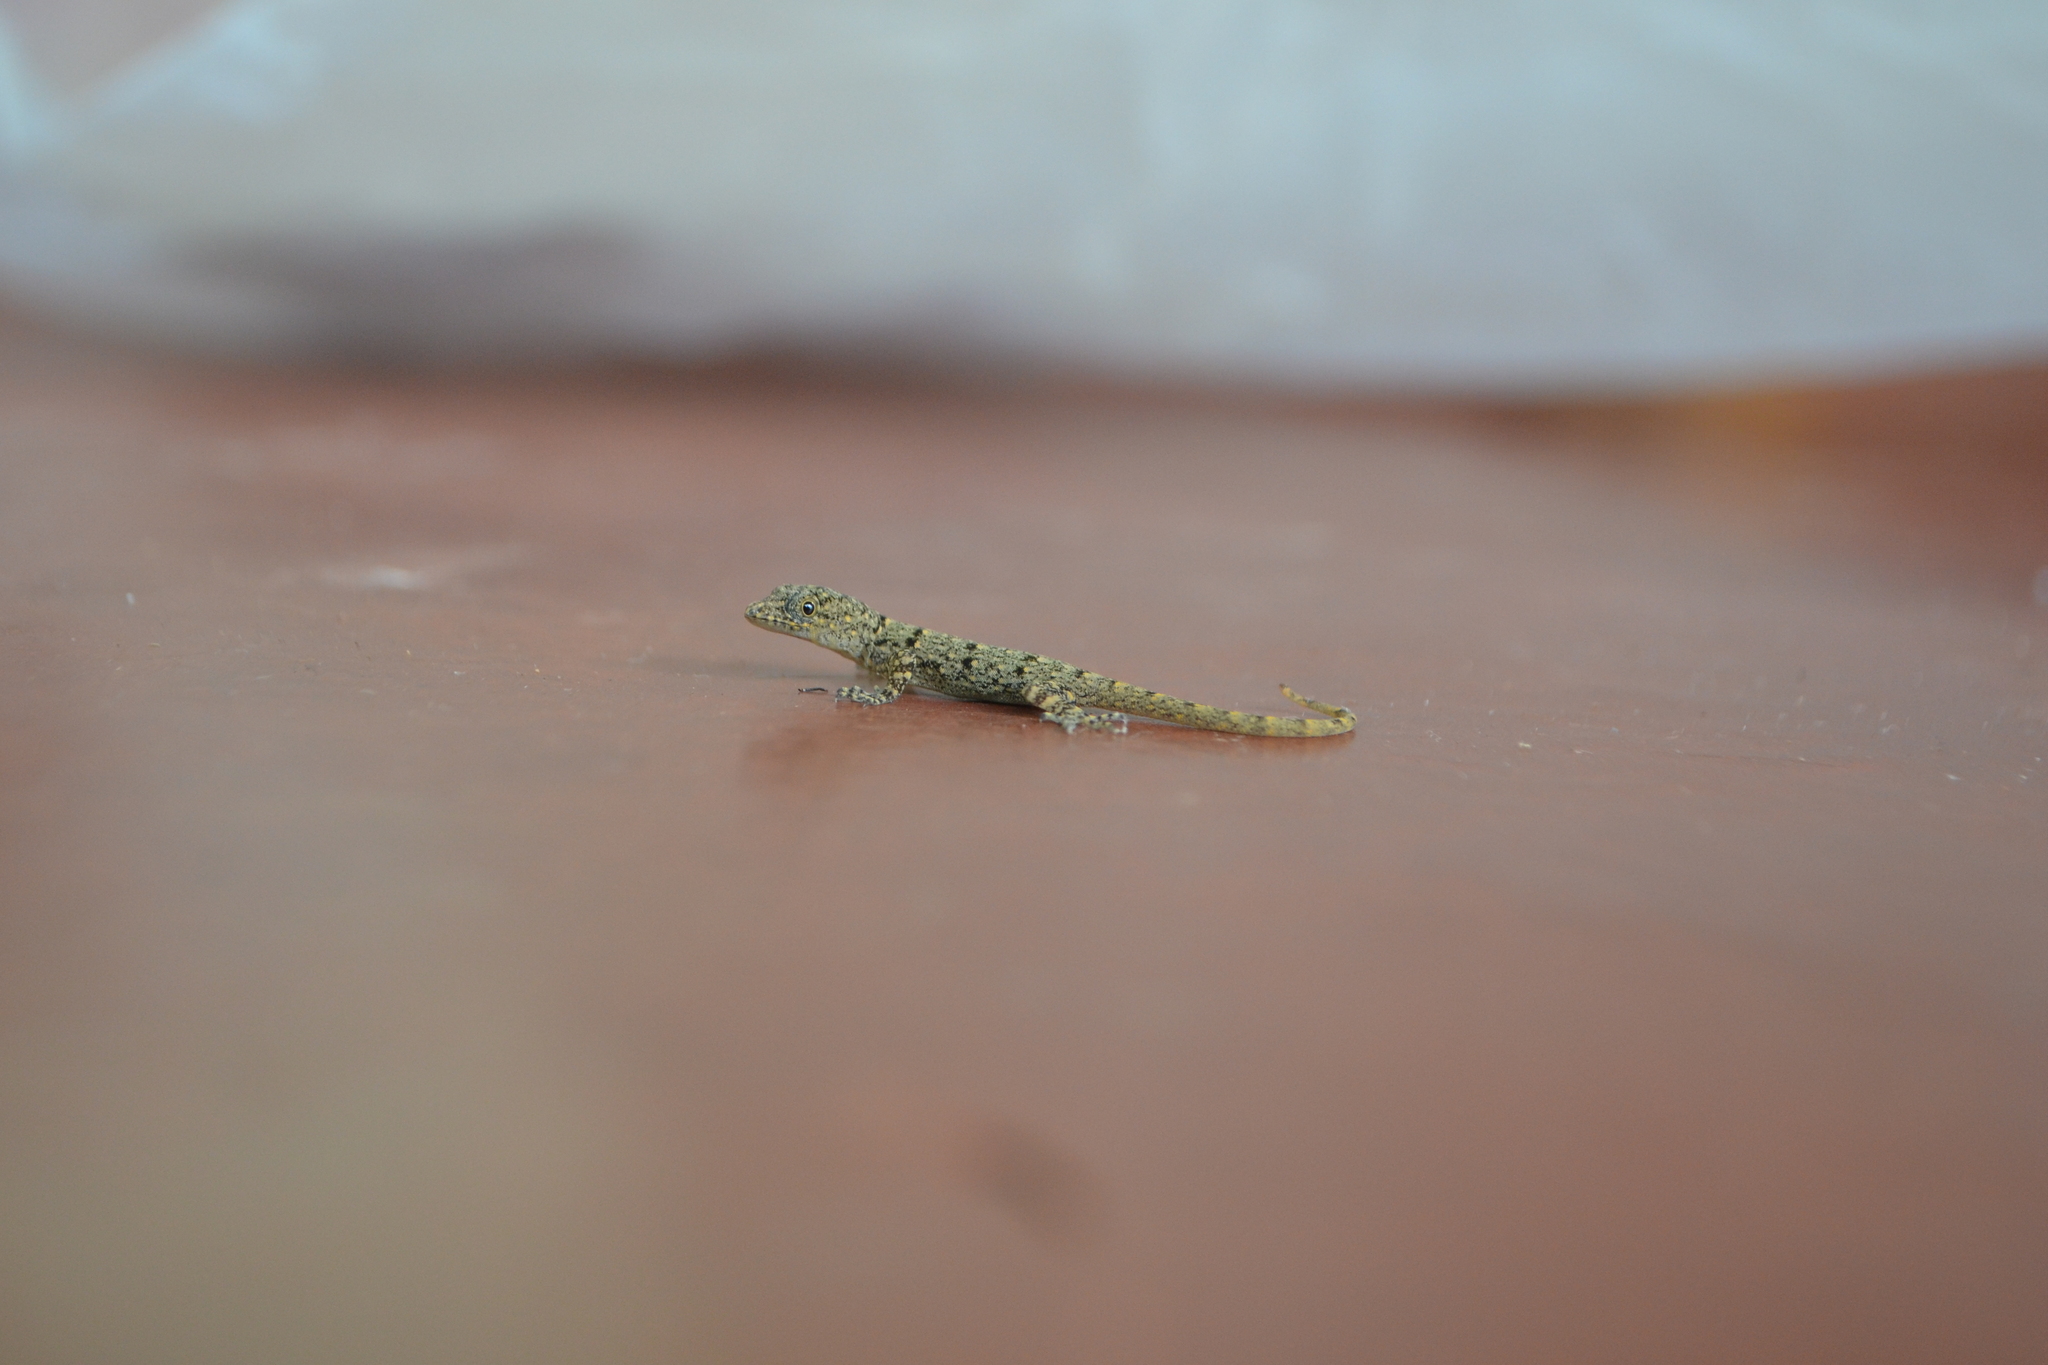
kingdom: Animalia
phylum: Chordata
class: Squamata
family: Sphaerodactylidae
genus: Gonatodes
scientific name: Gonatodes albogularis
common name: Yellow-headed gecko
